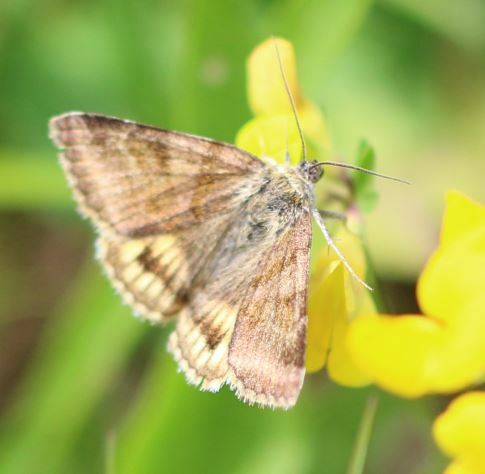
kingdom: Animalia
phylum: Arthropoda
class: Insecta
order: Lepidoptera
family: Erebidae
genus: Euclidia
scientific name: Euclidia glyphica
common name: Burnet companion
